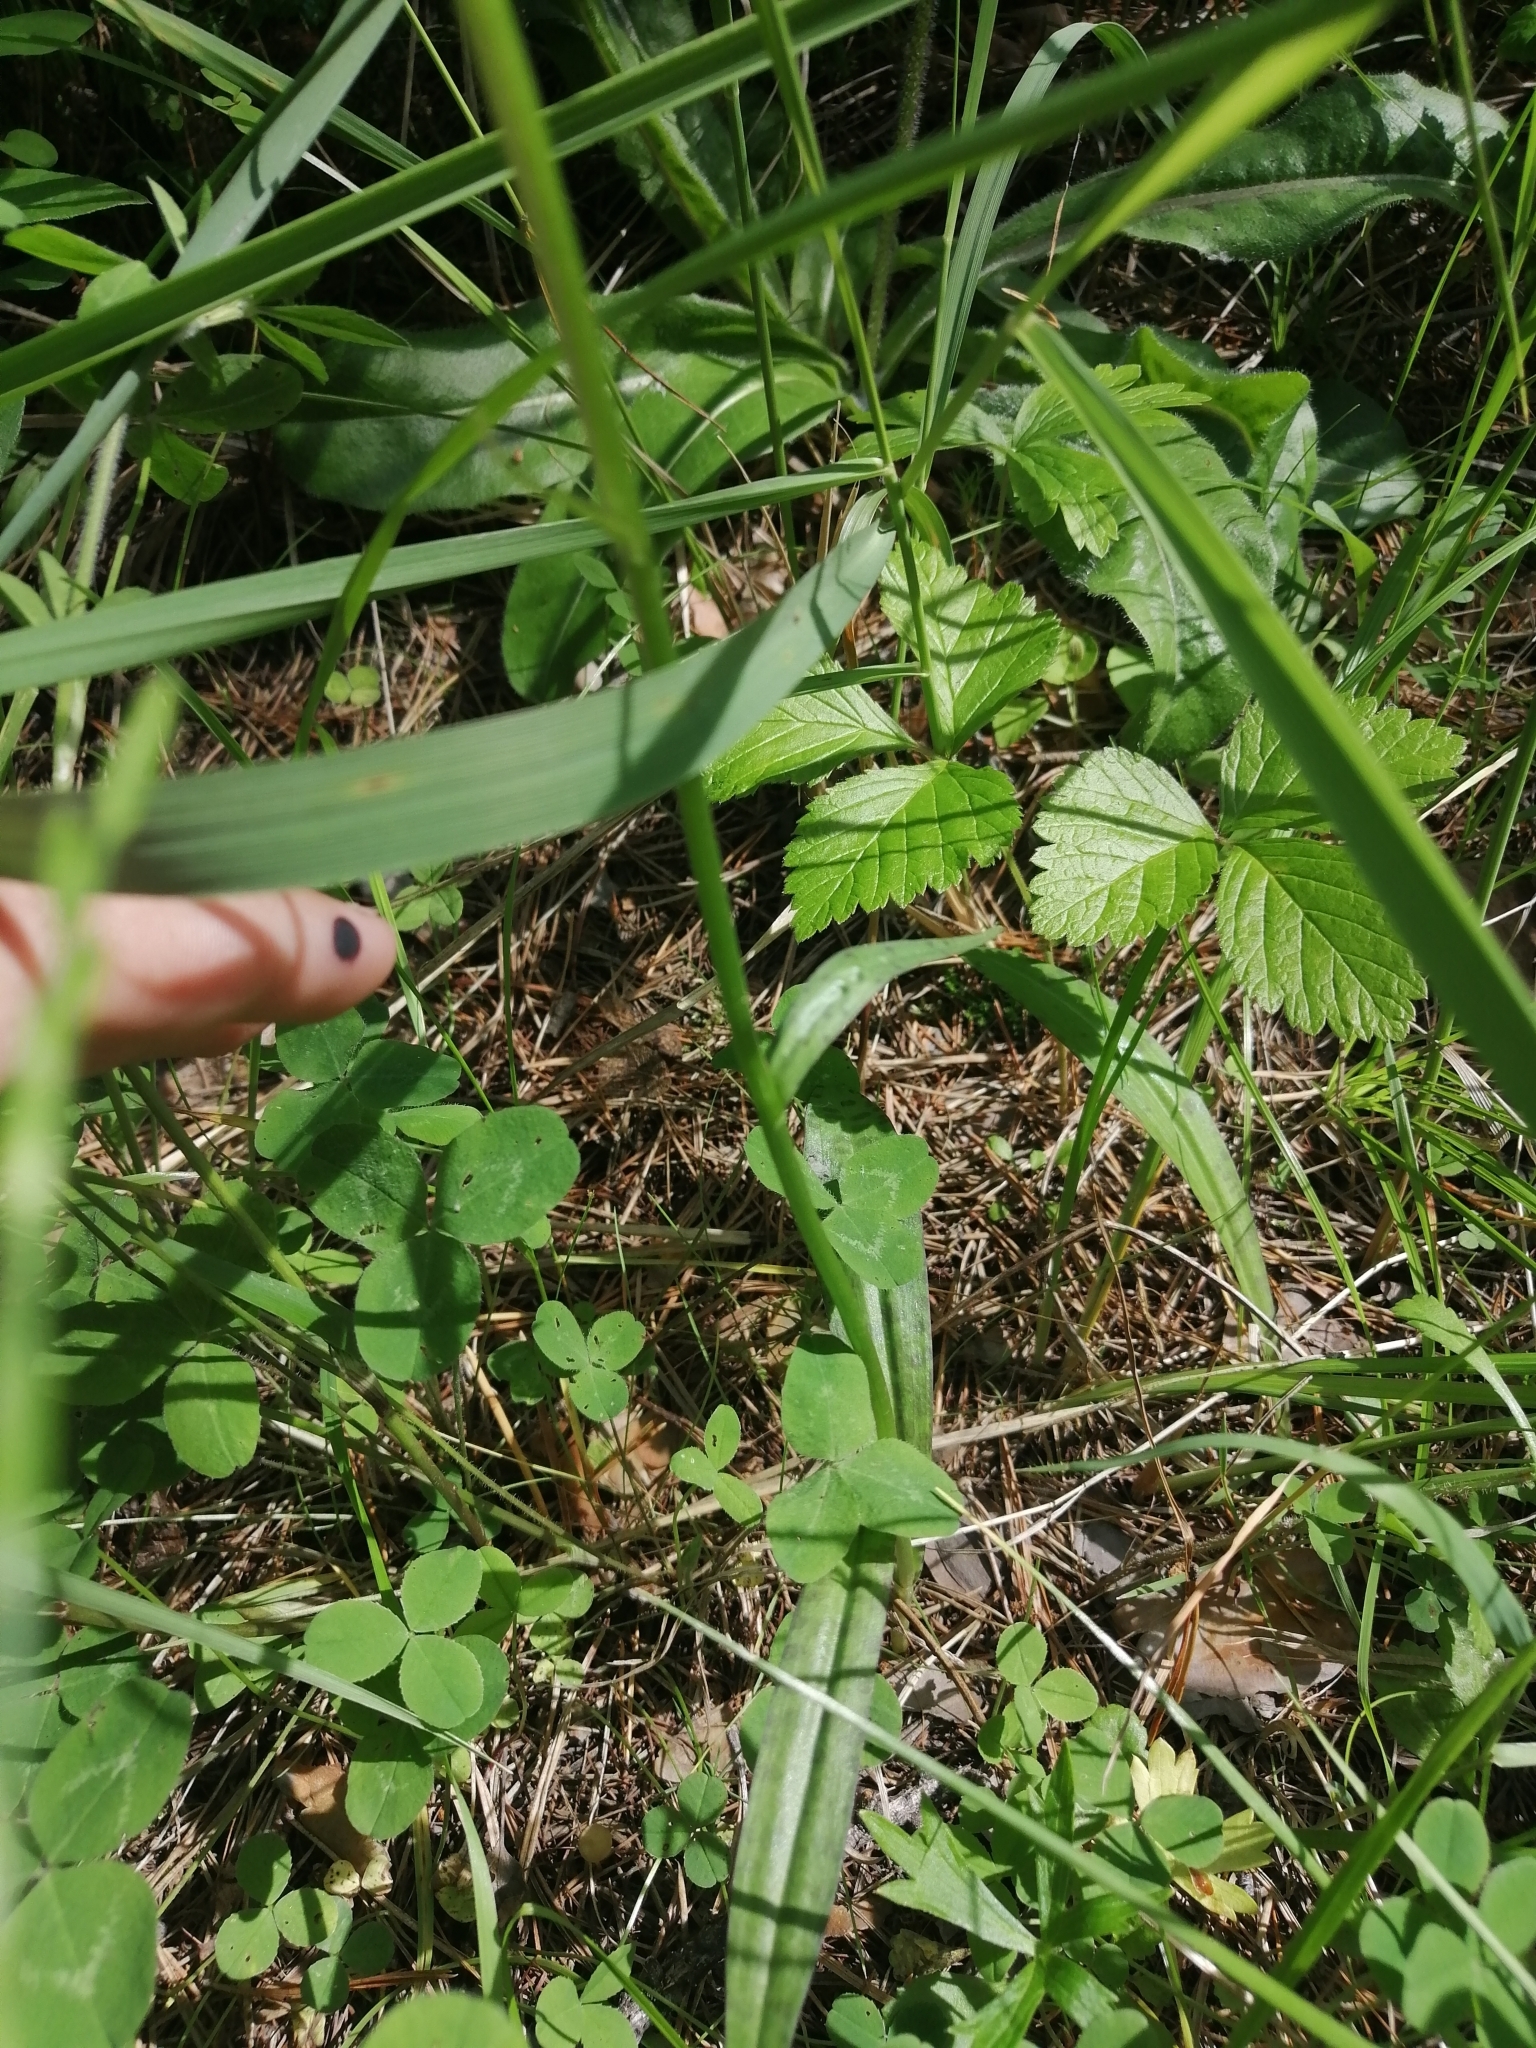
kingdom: Plantae
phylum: Tracheophyta
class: Liliopsida
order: Asparagales
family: Orchidaceae
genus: Dactylorhiza
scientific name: Dactylorhiza maculata
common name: Heath spotted-orchid
